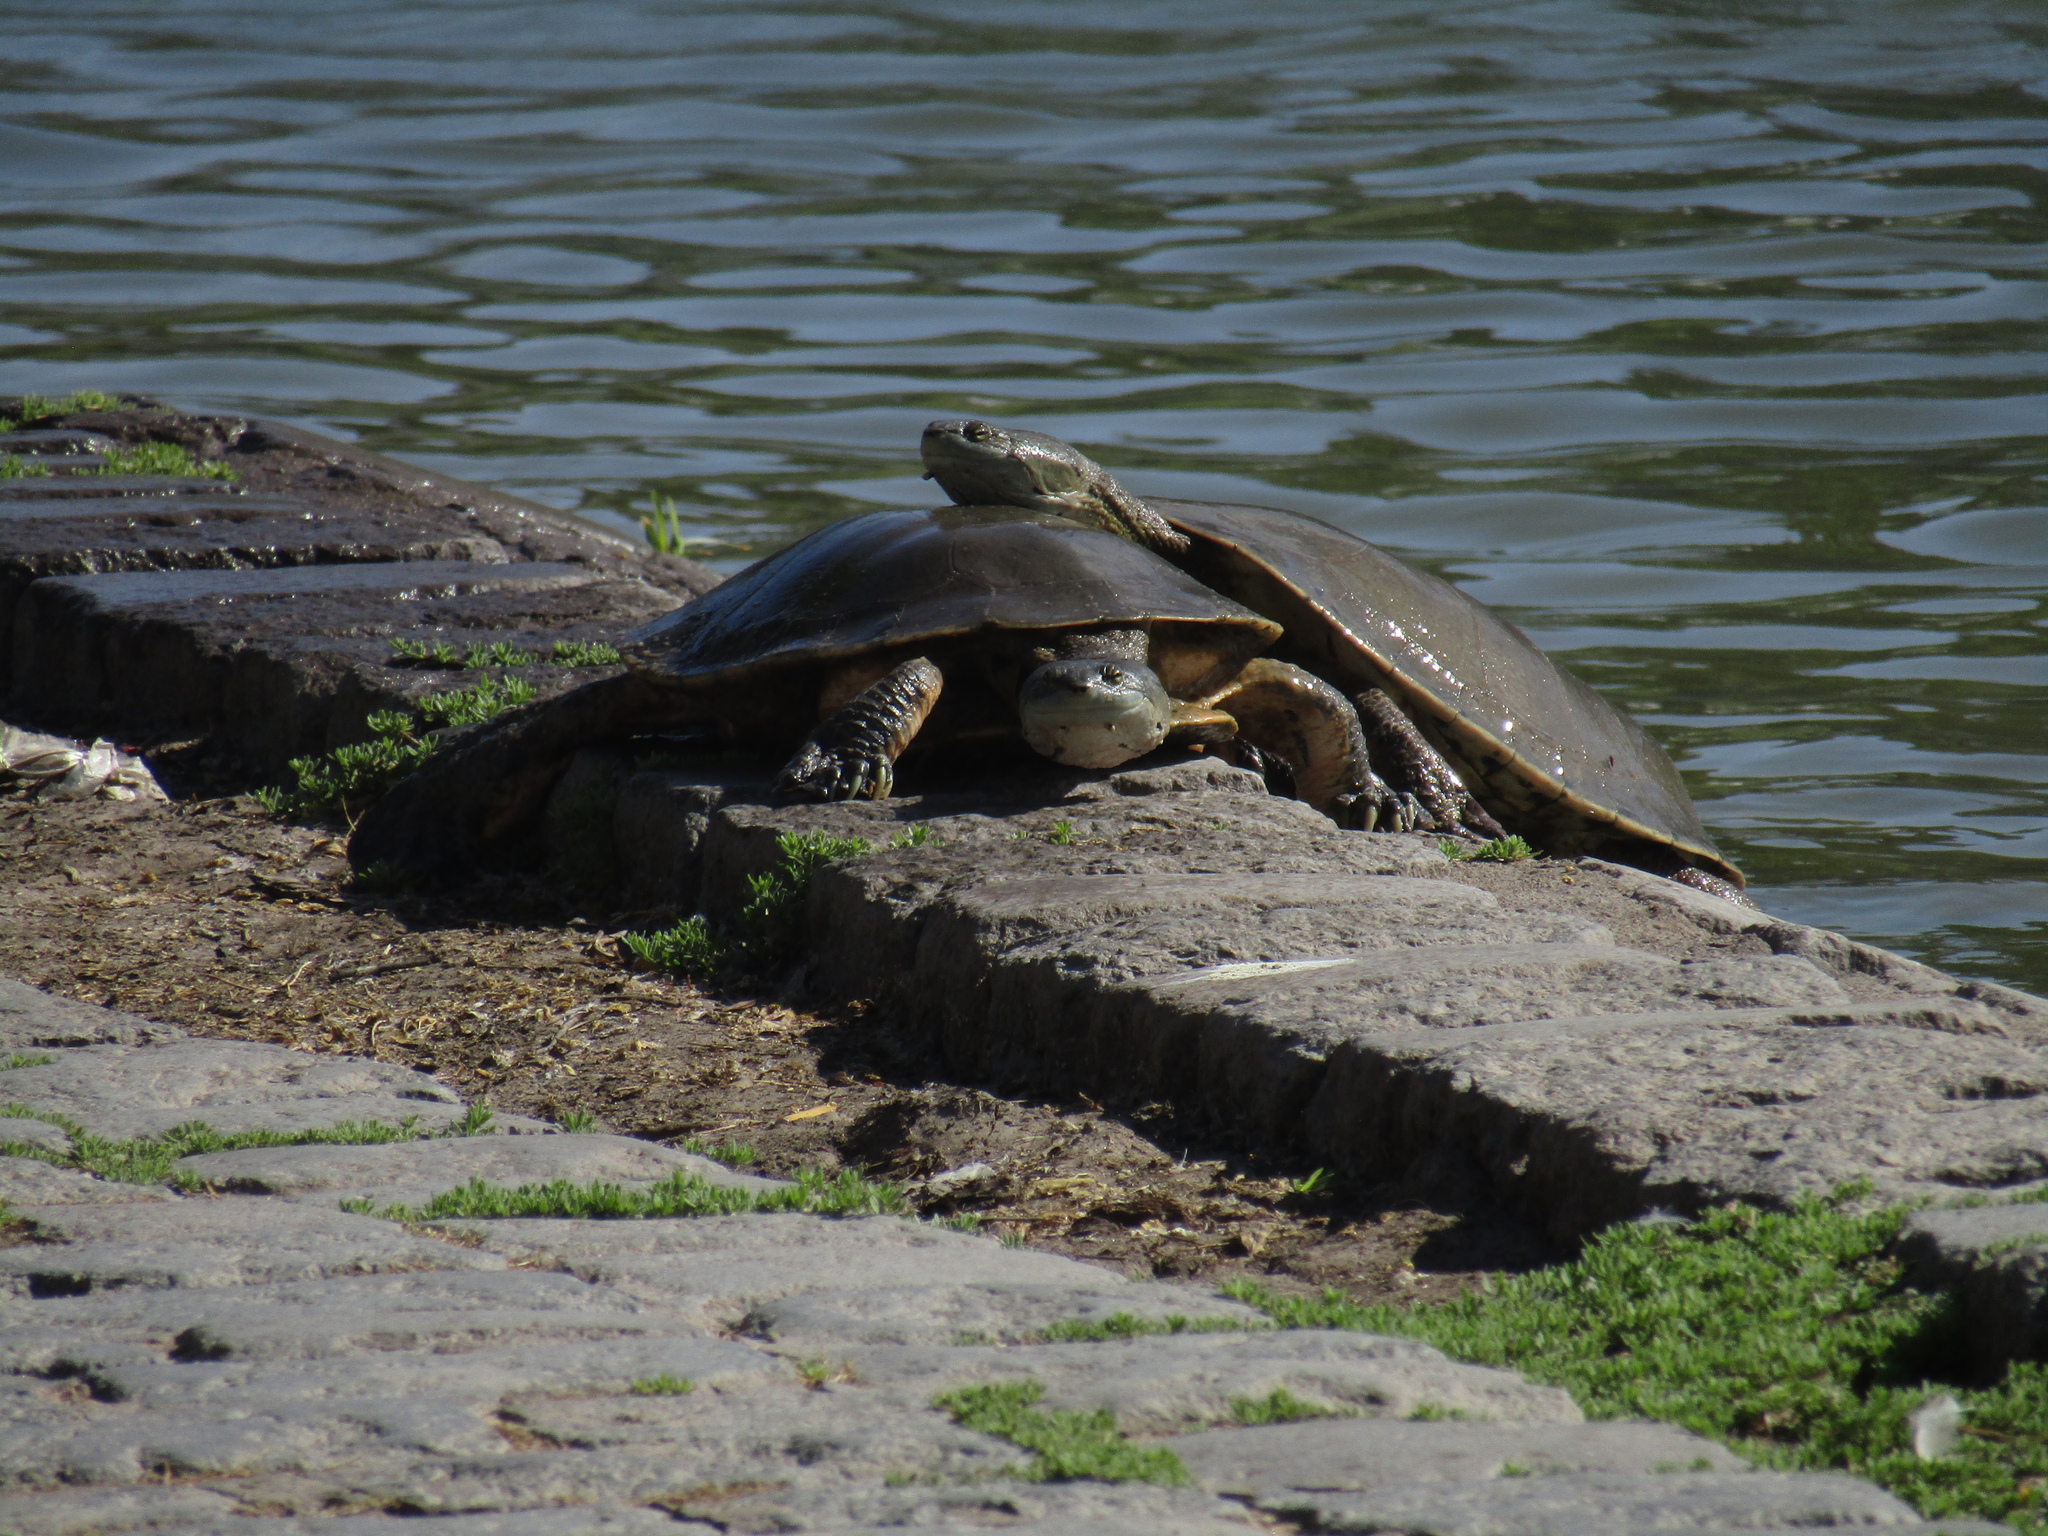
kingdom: Animalia
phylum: Chordata
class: Testudines
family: Chelidae
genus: Phrynops
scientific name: Phrynops hilarii
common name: Side-necked turtle of saint hillaire
